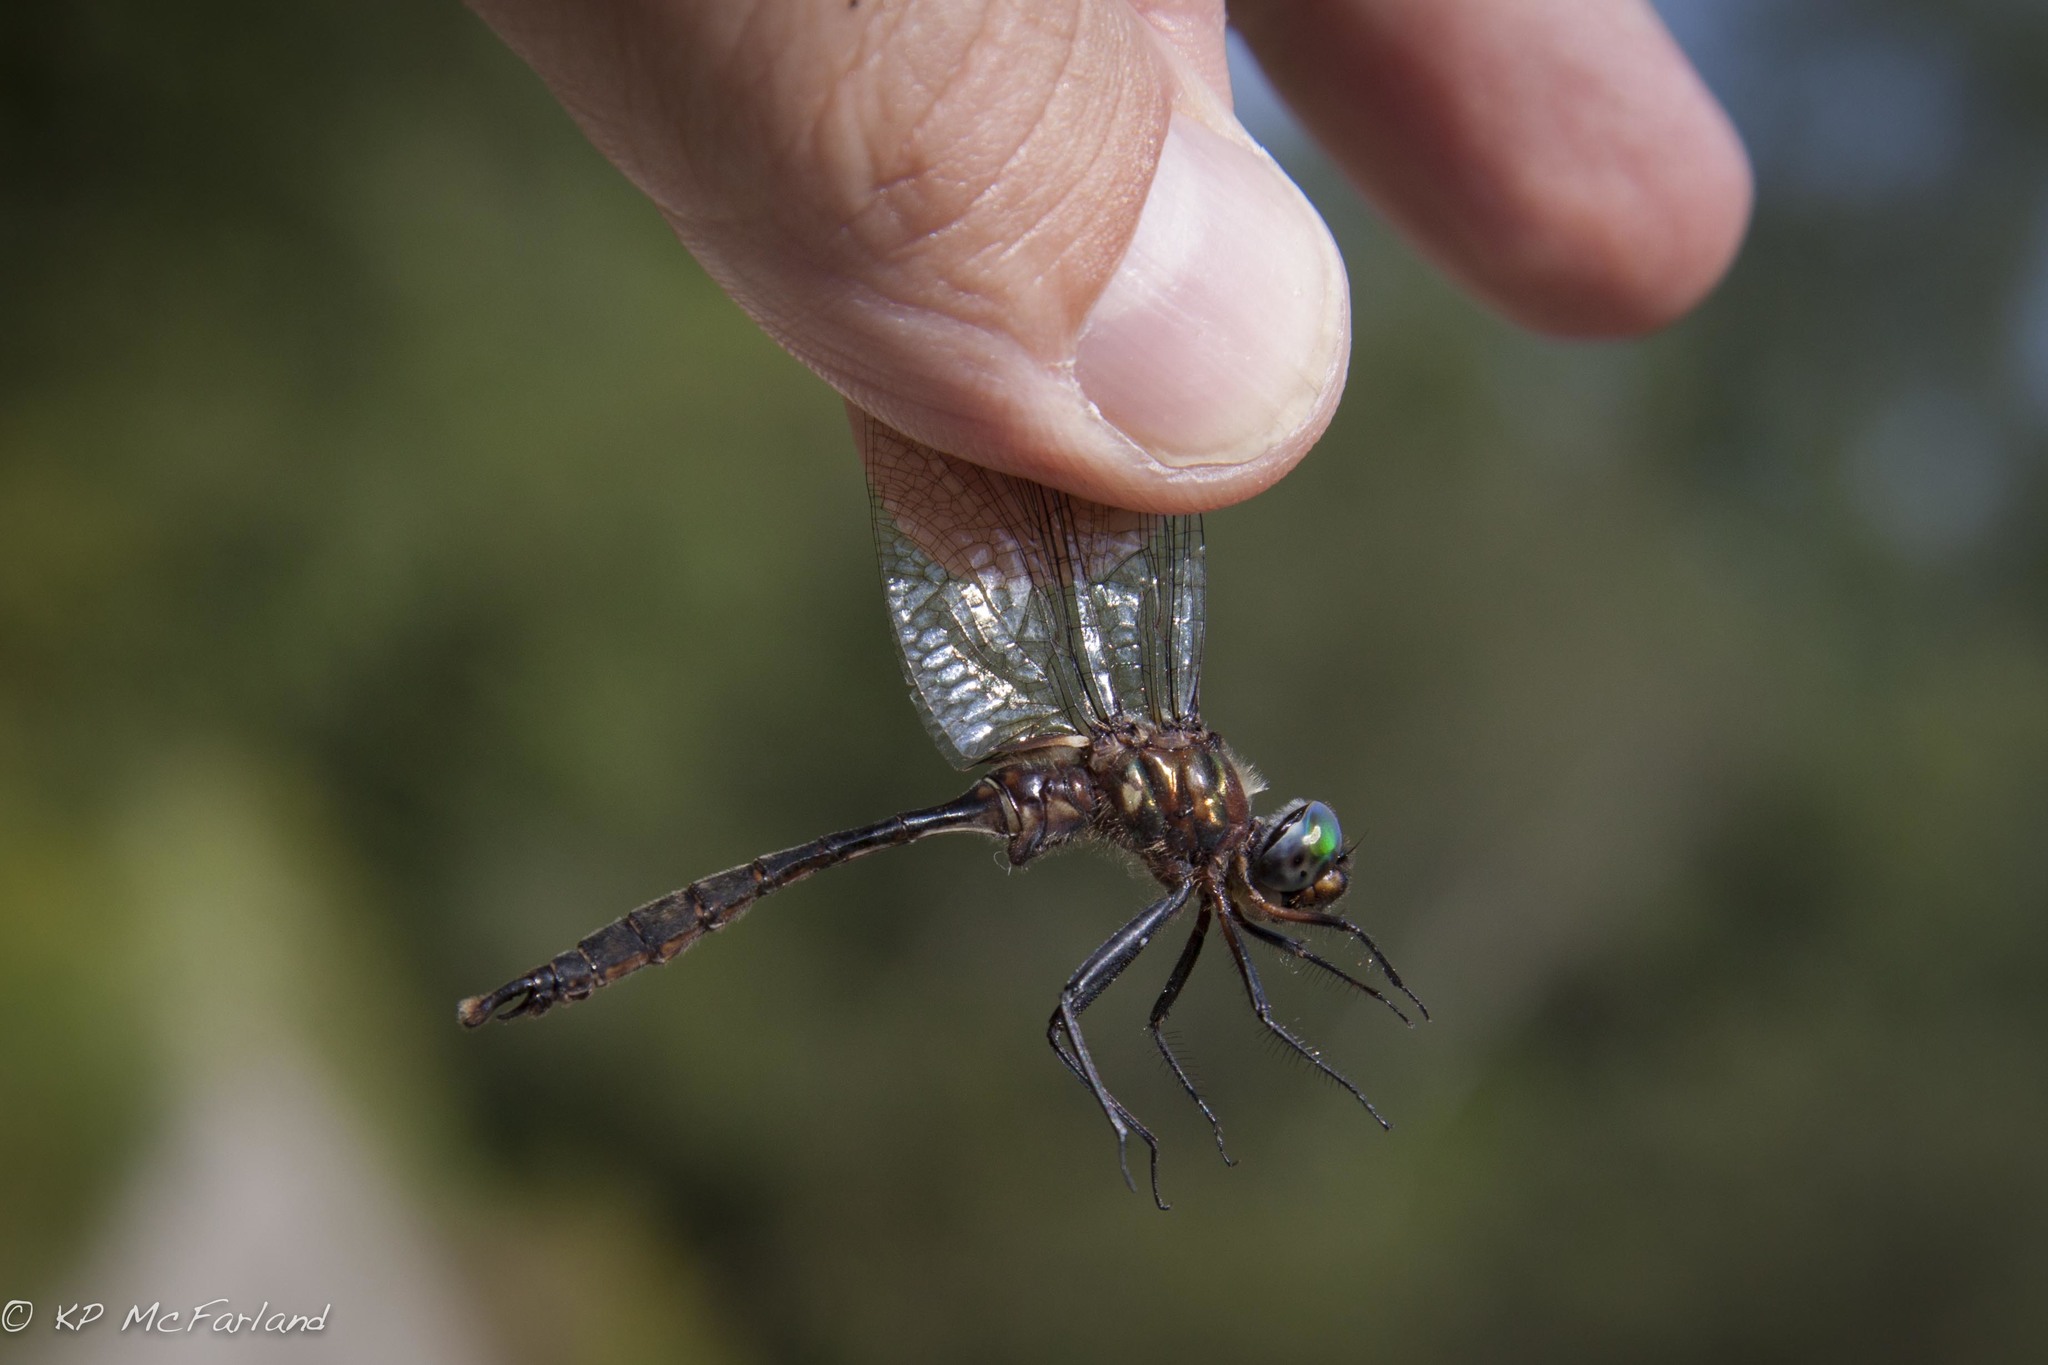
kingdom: Animalia
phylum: Arthropoda
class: Insecta
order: Odonata
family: Corduliidae
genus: Somatochlora
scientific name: Somatochlora walshii
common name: Brush-tipped emerald
